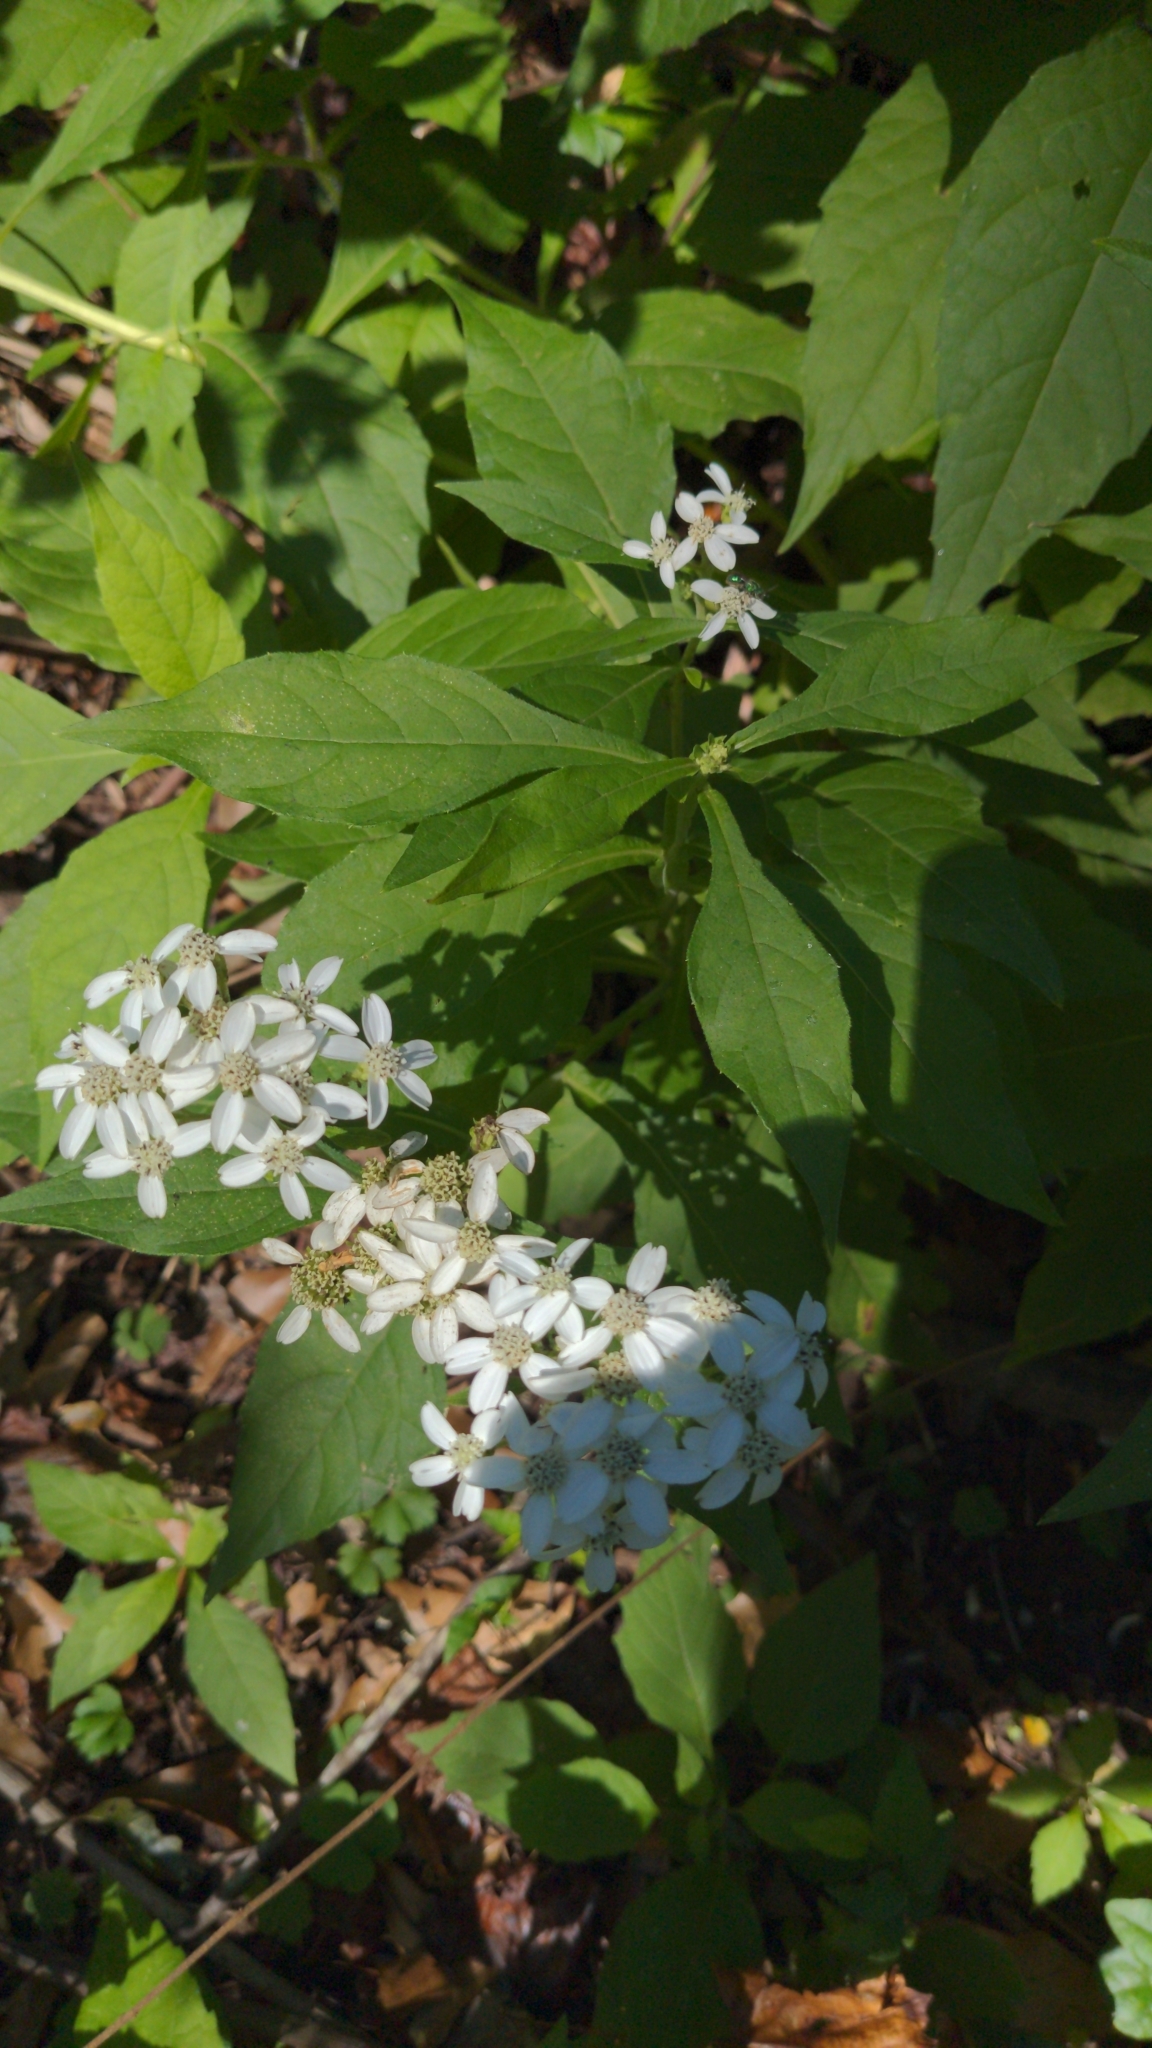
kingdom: Plantae
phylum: Tracheophyta
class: Magnoliopsida
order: Asterales
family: Asteraceae
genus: Verbesina
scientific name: Verbesina virginica
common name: Frostweed
